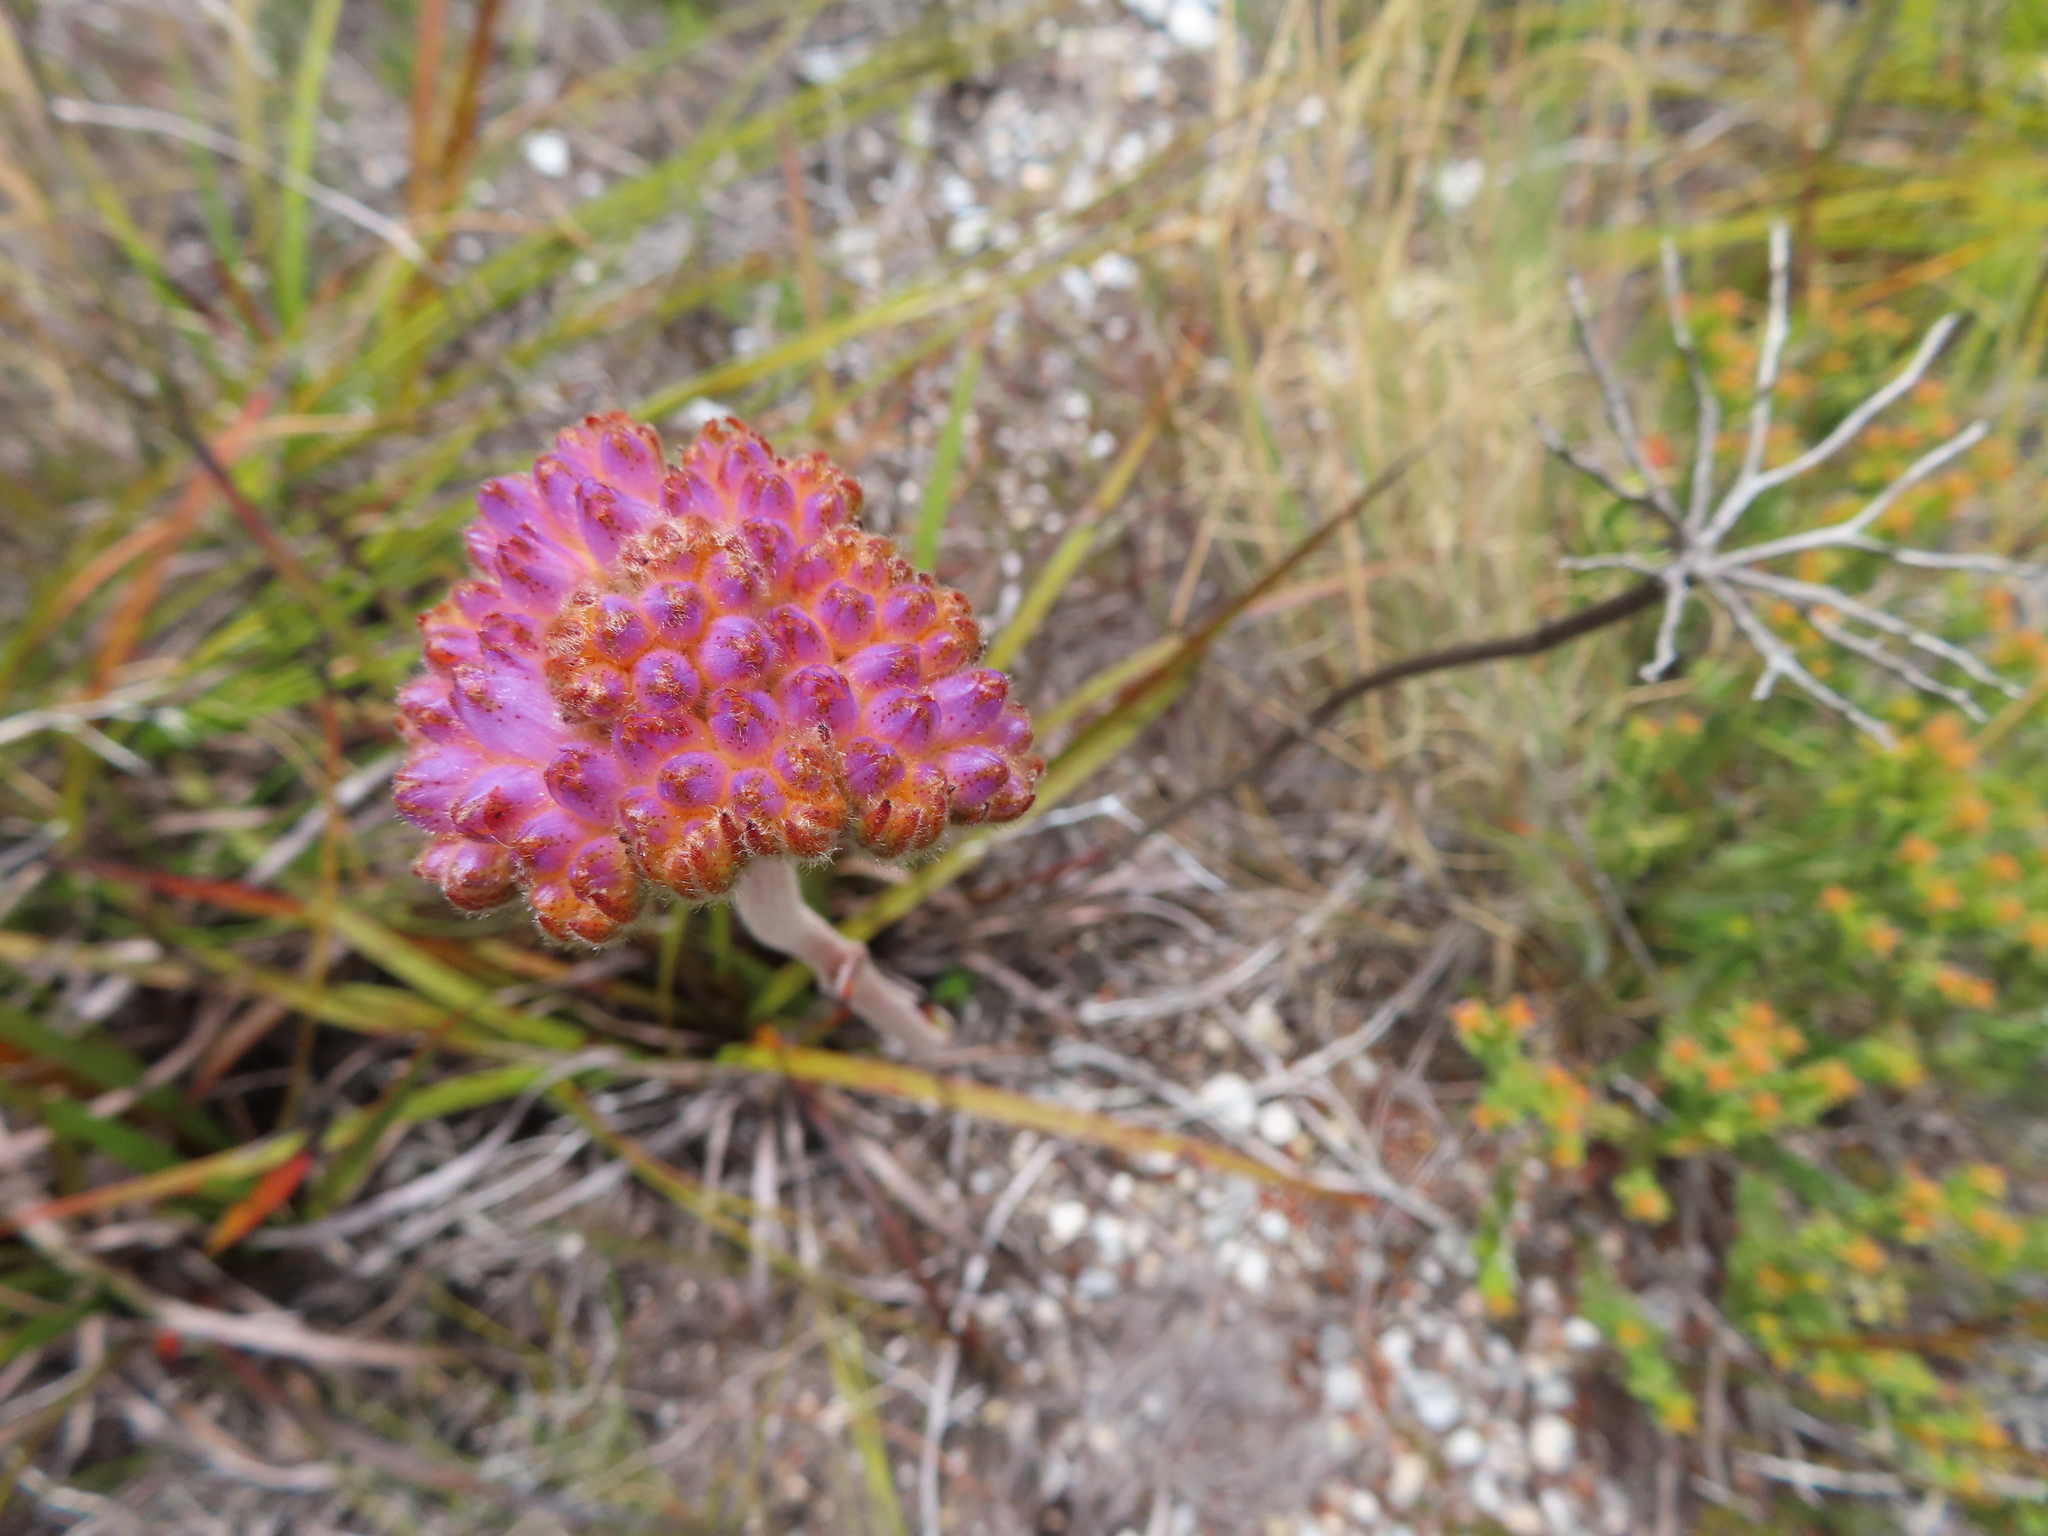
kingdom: Plantae
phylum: Tracheophyta
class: Liliopsida
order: Commelinales
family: Haemodoraceae
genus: Dilatris
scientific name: Dilatris pillansii
